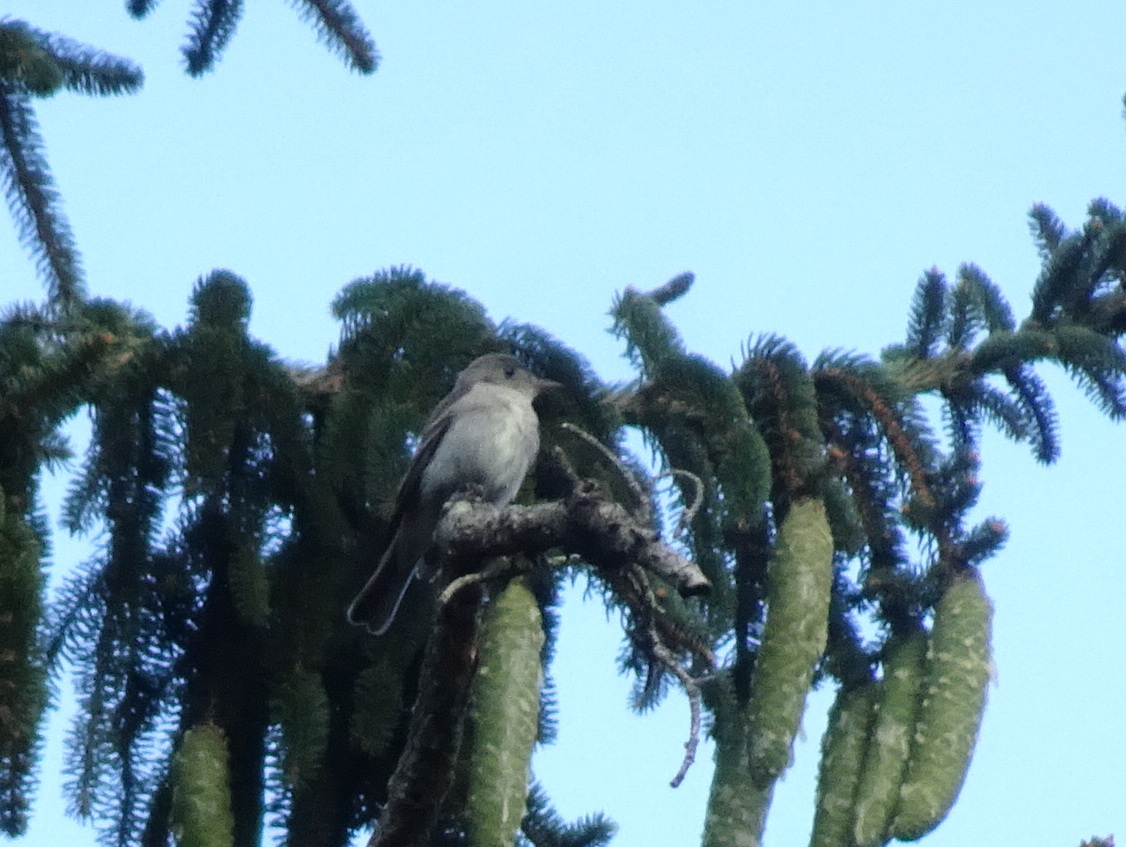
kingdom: Animalia
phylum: Chordata
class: Aves
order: Passeriformes
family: Tyrannidae
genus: Contopus
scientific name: Contopus virens
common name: Eastern wood-pewee
